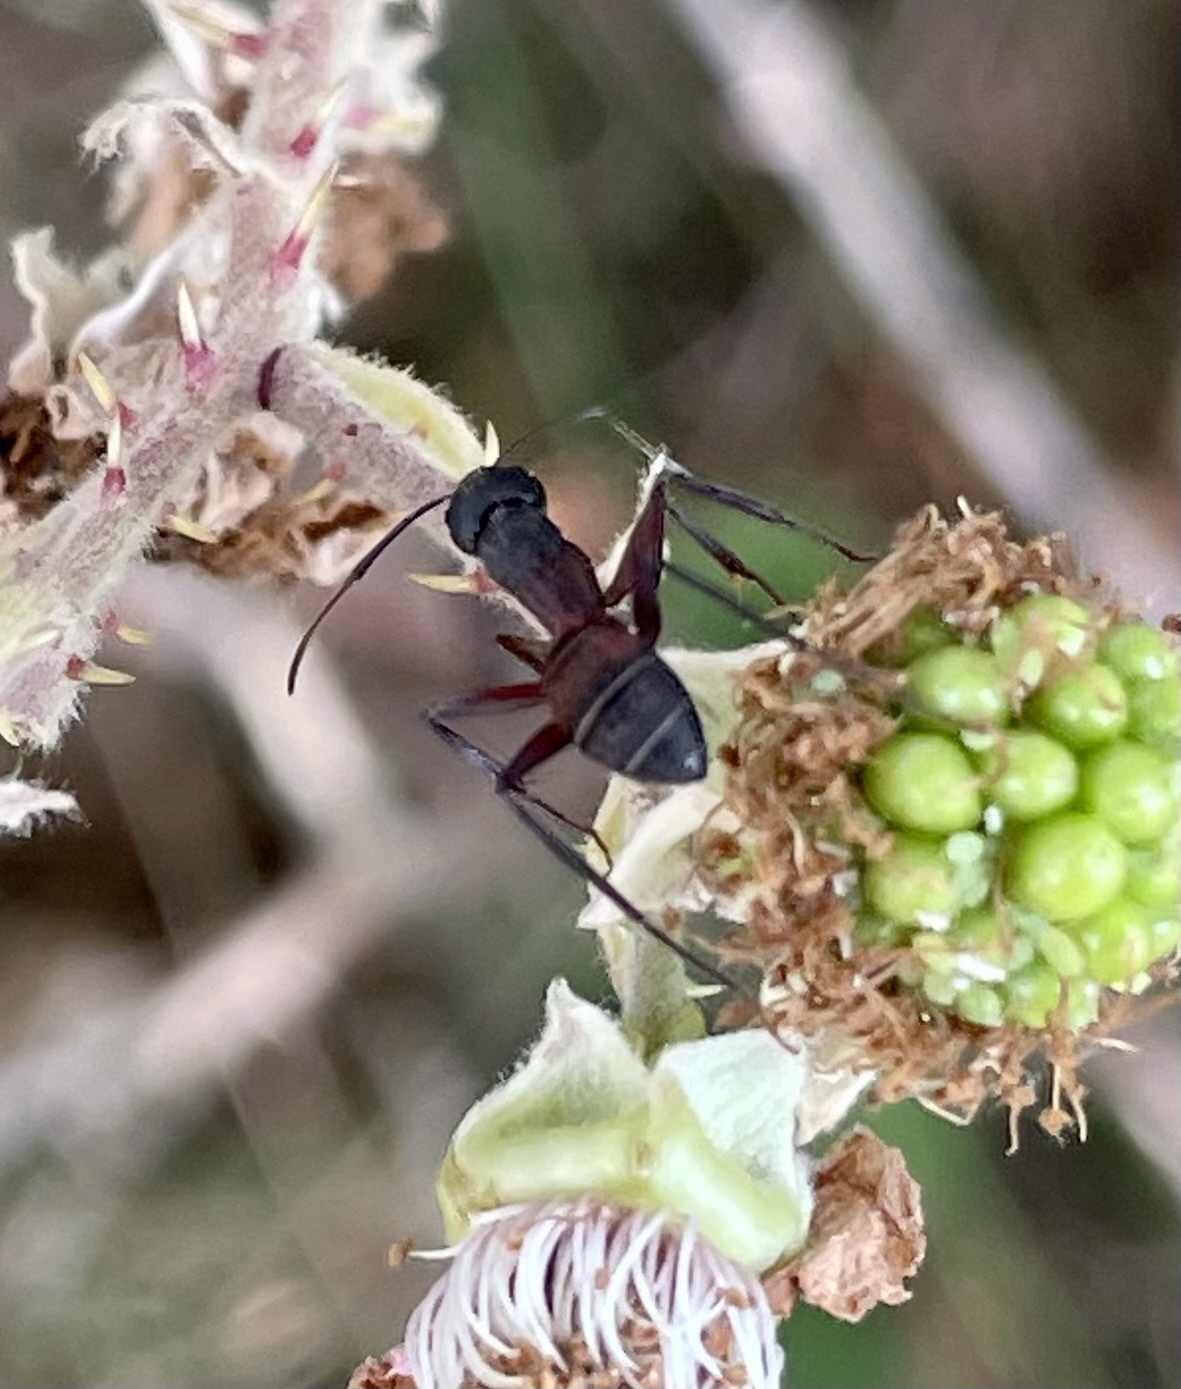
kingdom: Animalia
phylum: Arthropoda
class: Insecta
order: Hymenoptera
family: Formicidae
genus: Camponotus
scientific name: Camponotus cruentatus
